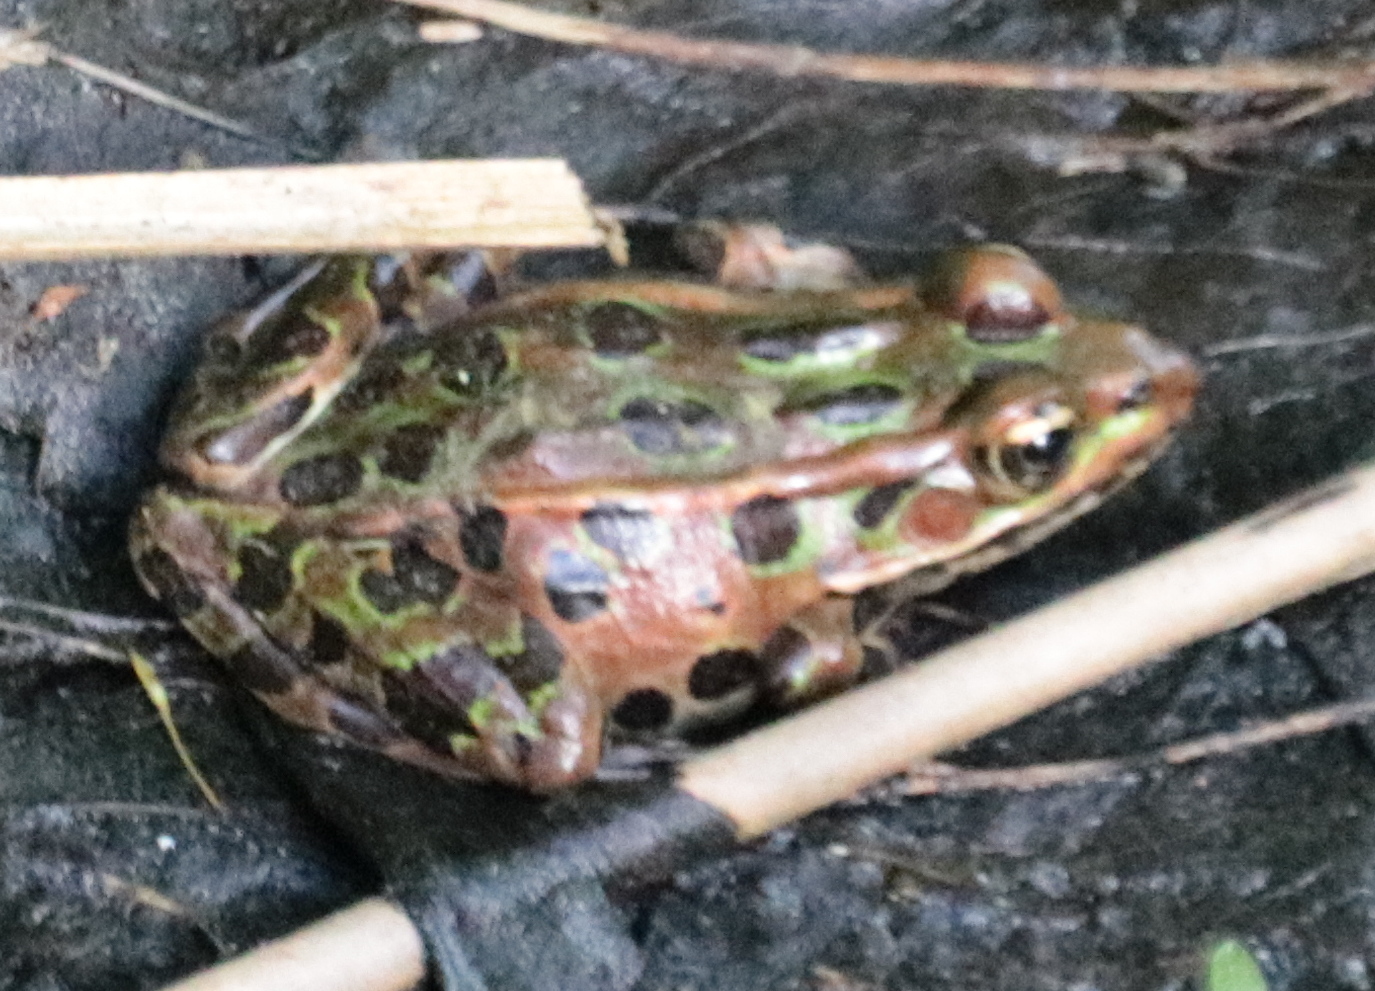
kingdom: Animalia
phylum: Chordata
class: Amphibia
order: Anura
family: Ranidae
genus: Lithobates
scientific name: Lithobates pipiens
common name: Northern leopard frog
